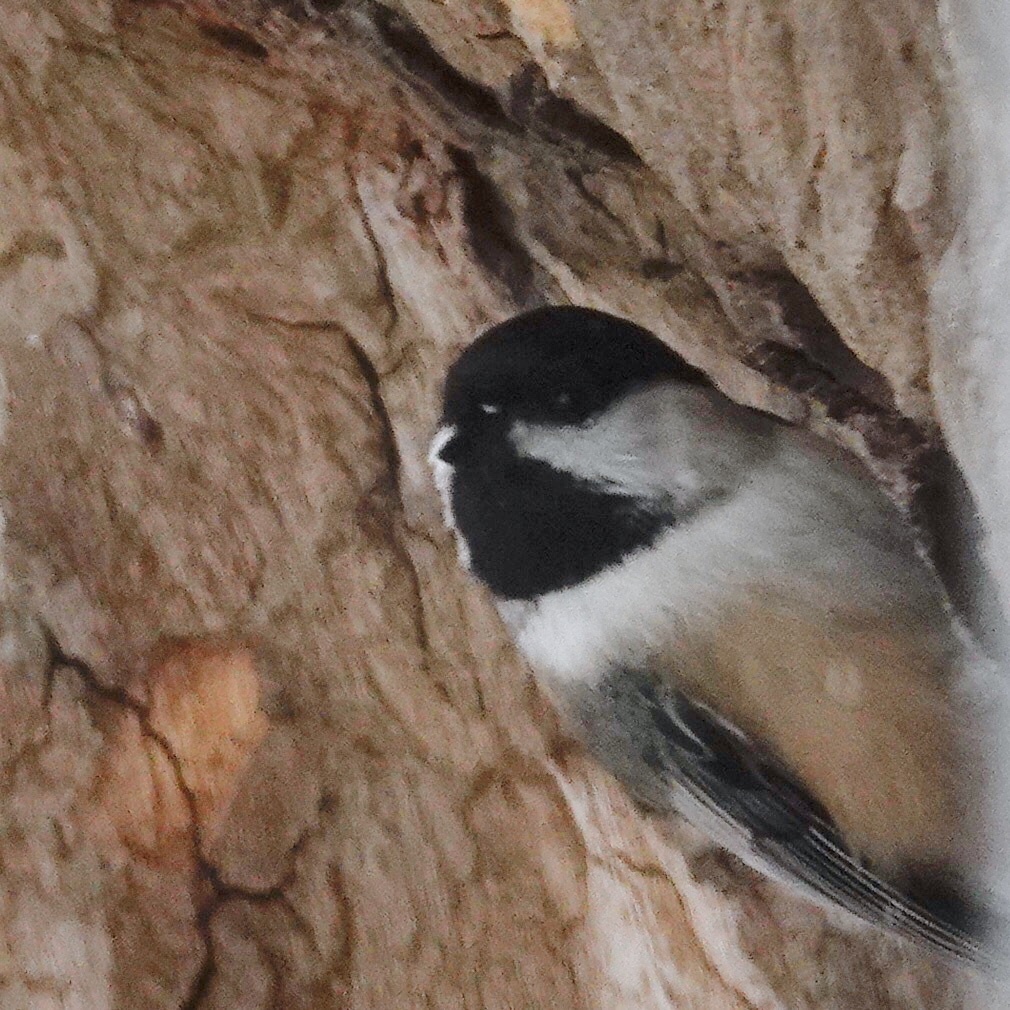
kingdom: Animalia
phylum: Chordata
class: Aves
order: Passeriformes
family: Paridae
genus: Poecile
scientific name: Poecile atricapillus
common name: Black-capped chickadee
